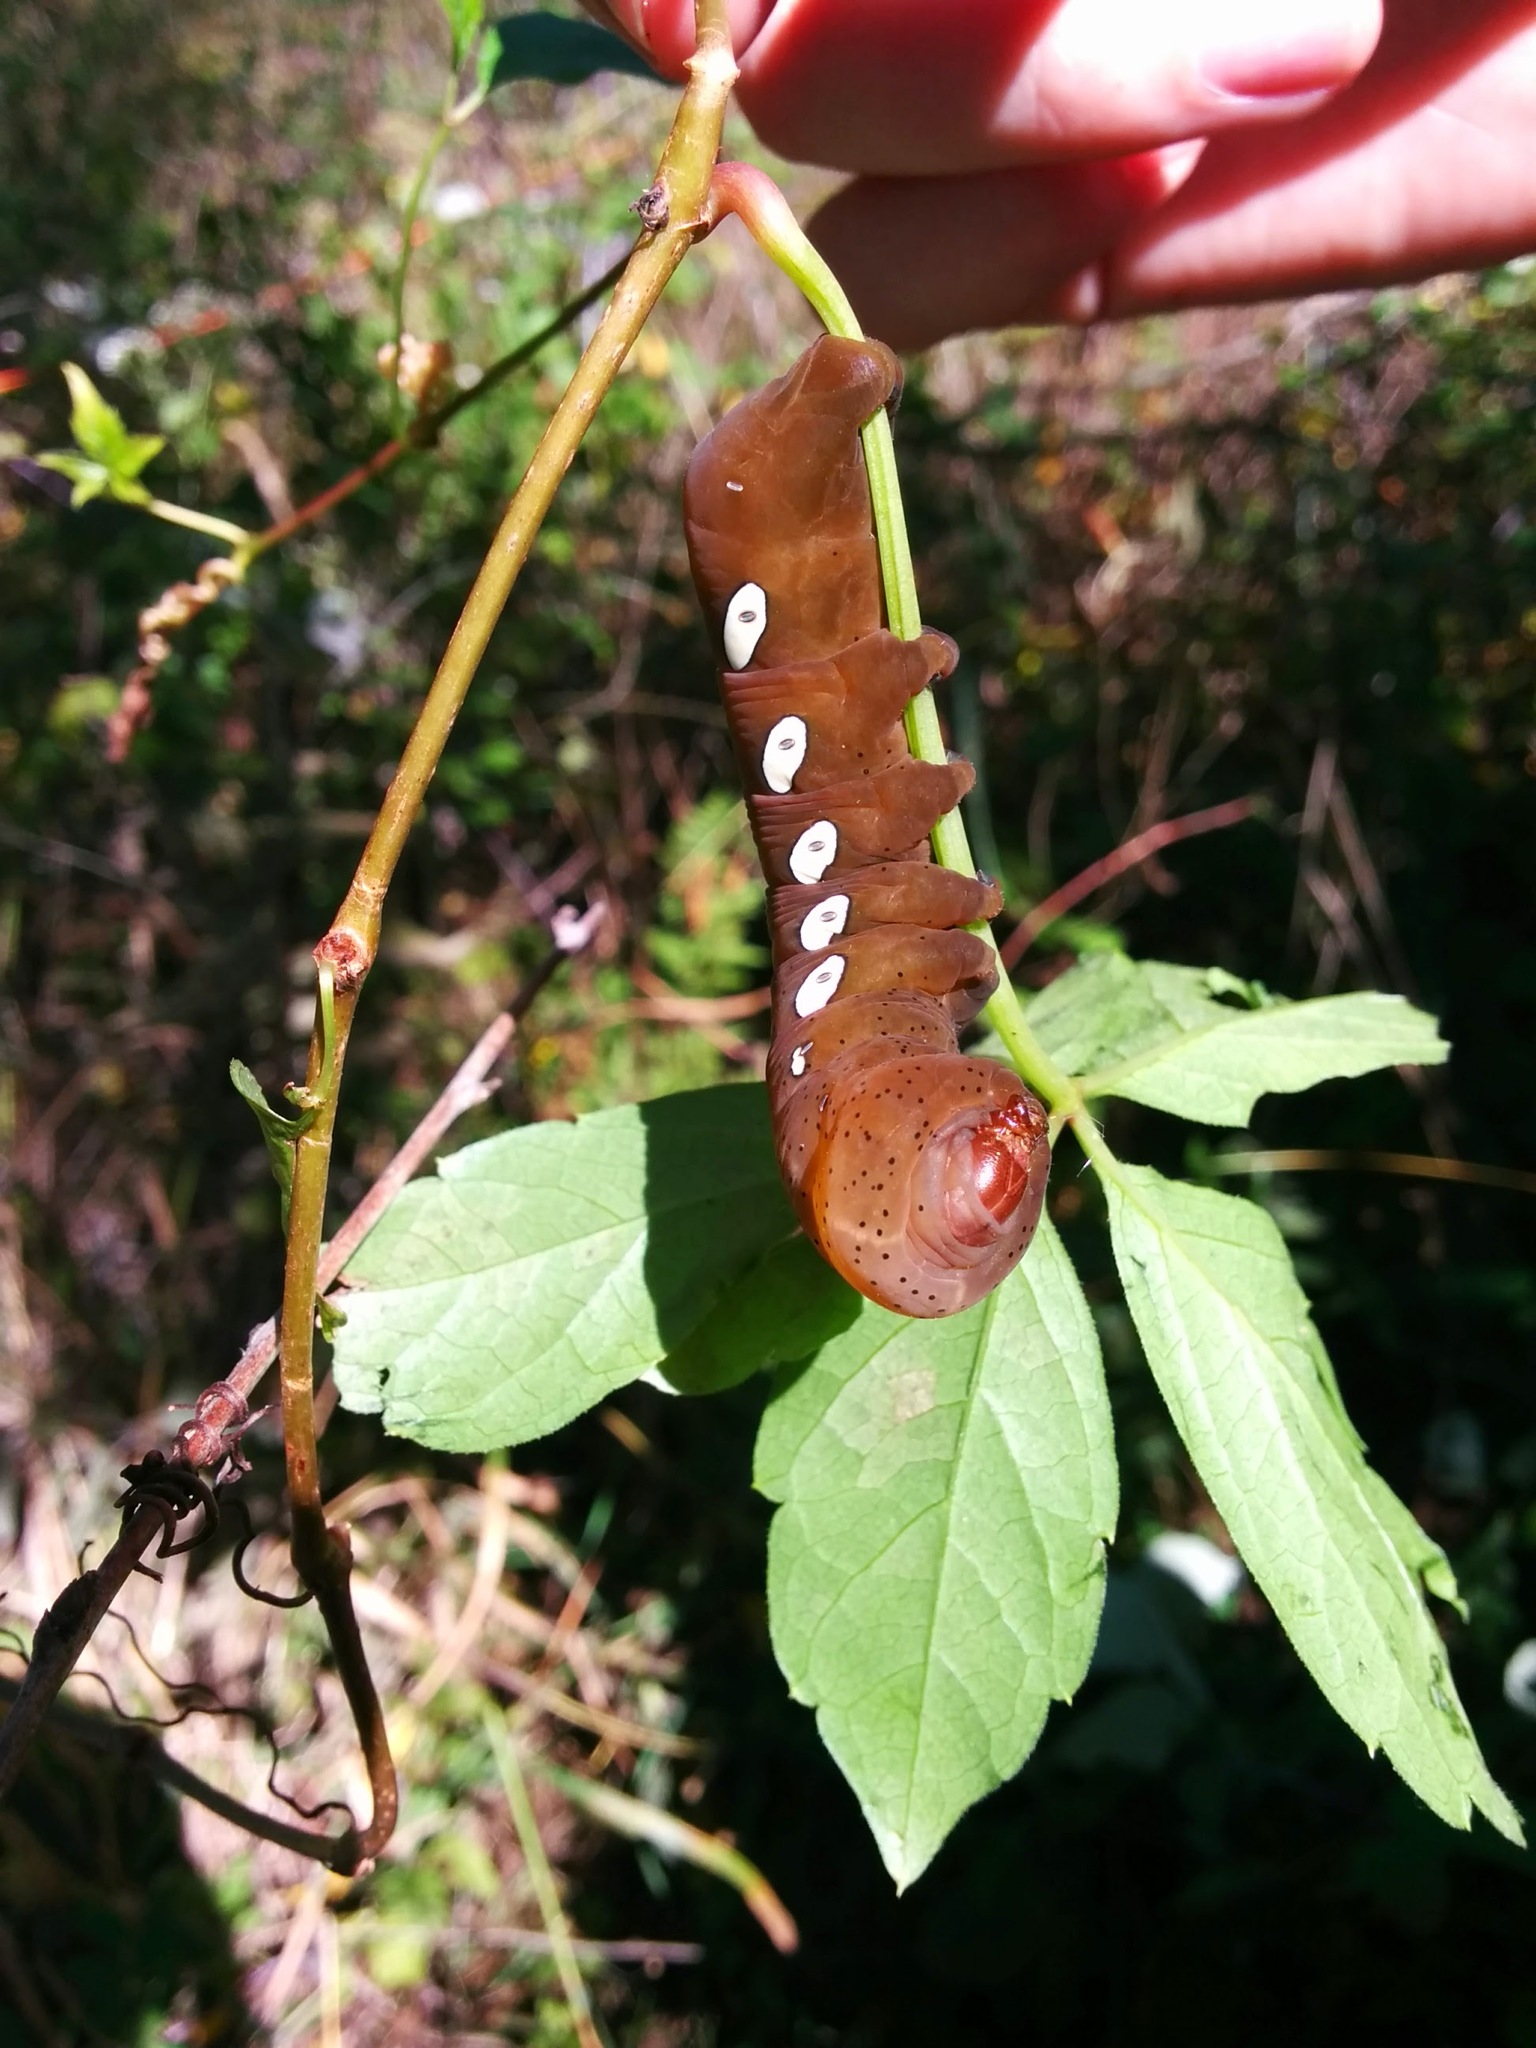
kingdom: Animalia
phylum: Arthropoda
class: Insecta
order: Lepidoptera
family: Sphingidae
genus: Eumorpha
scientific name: Eumorpha pandorus
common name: Pandora sphinx
